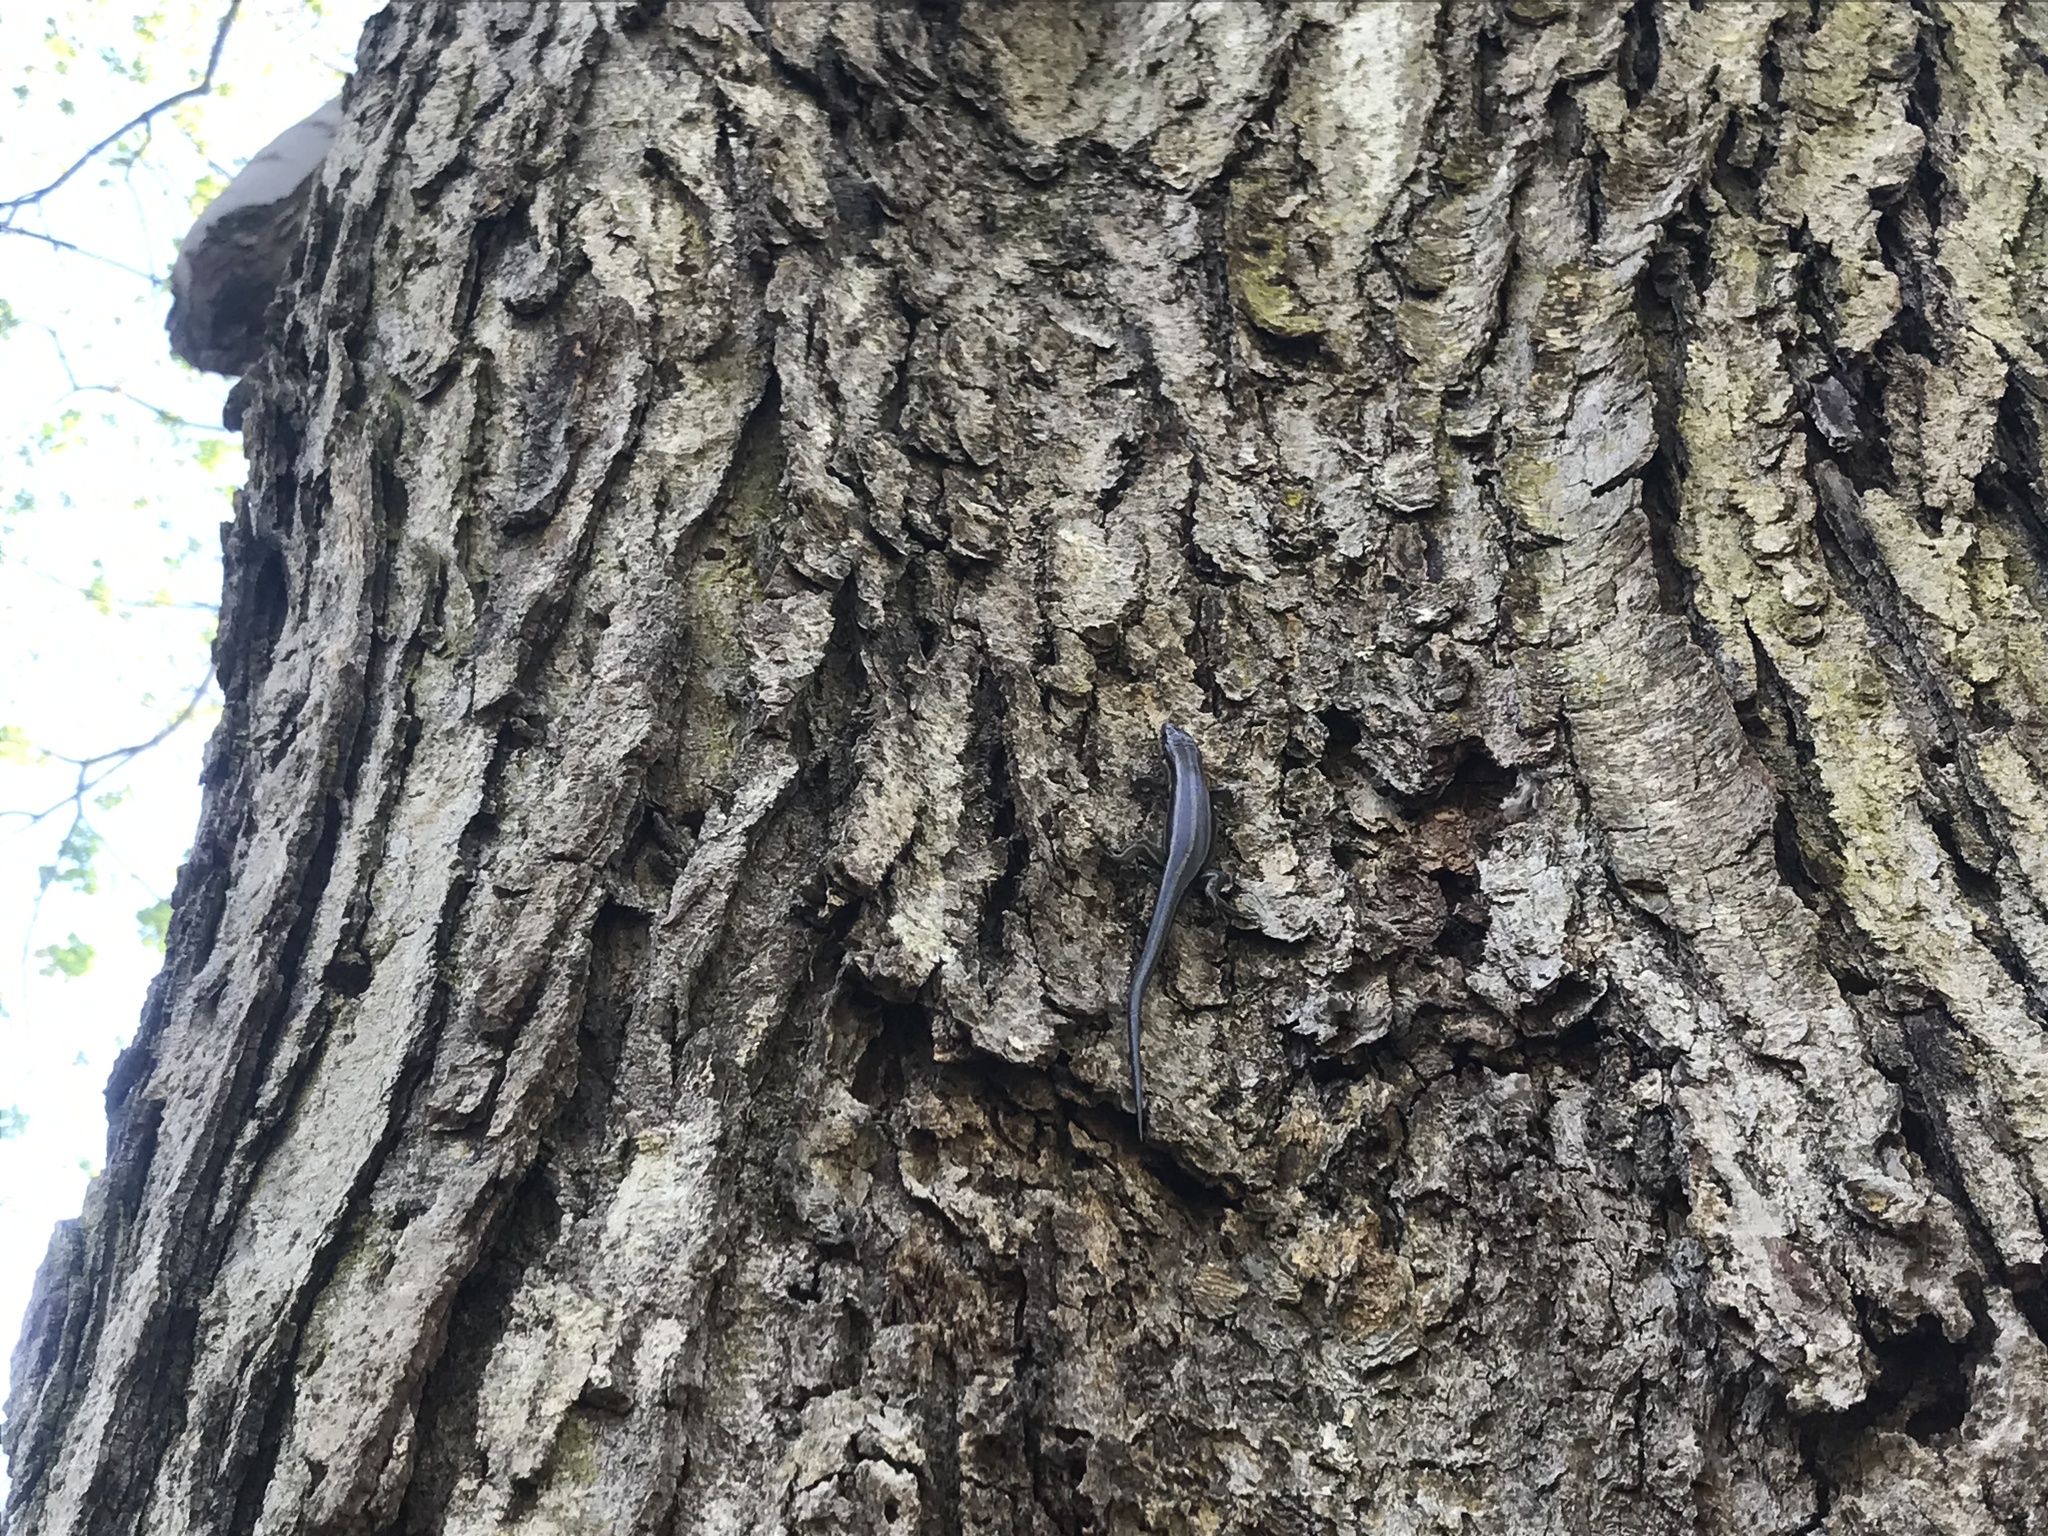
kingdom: Animalia
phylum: Chordata
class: Squamata
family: Scincidae
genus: Plestiodon
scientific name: Plestiodon fasciatus
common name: Five-lined skink
